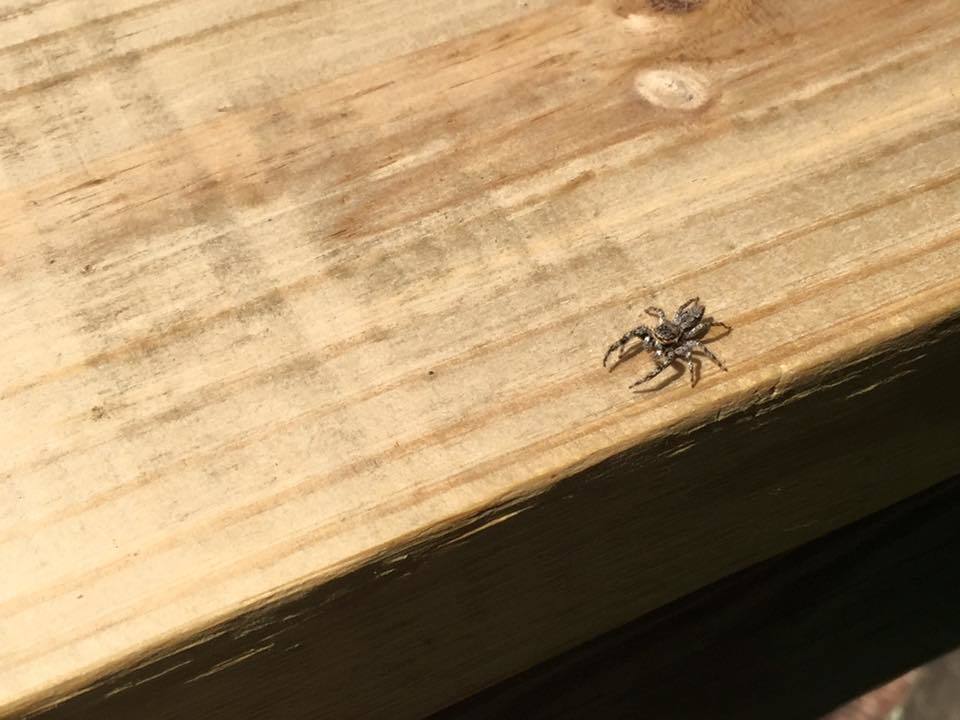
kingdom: Animalia
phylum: Arthropoda
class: Arachnida
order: Araneae
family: Salticidae
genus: Platycryptus
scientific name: Platycryptus undatus
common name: Tan jumping spider
